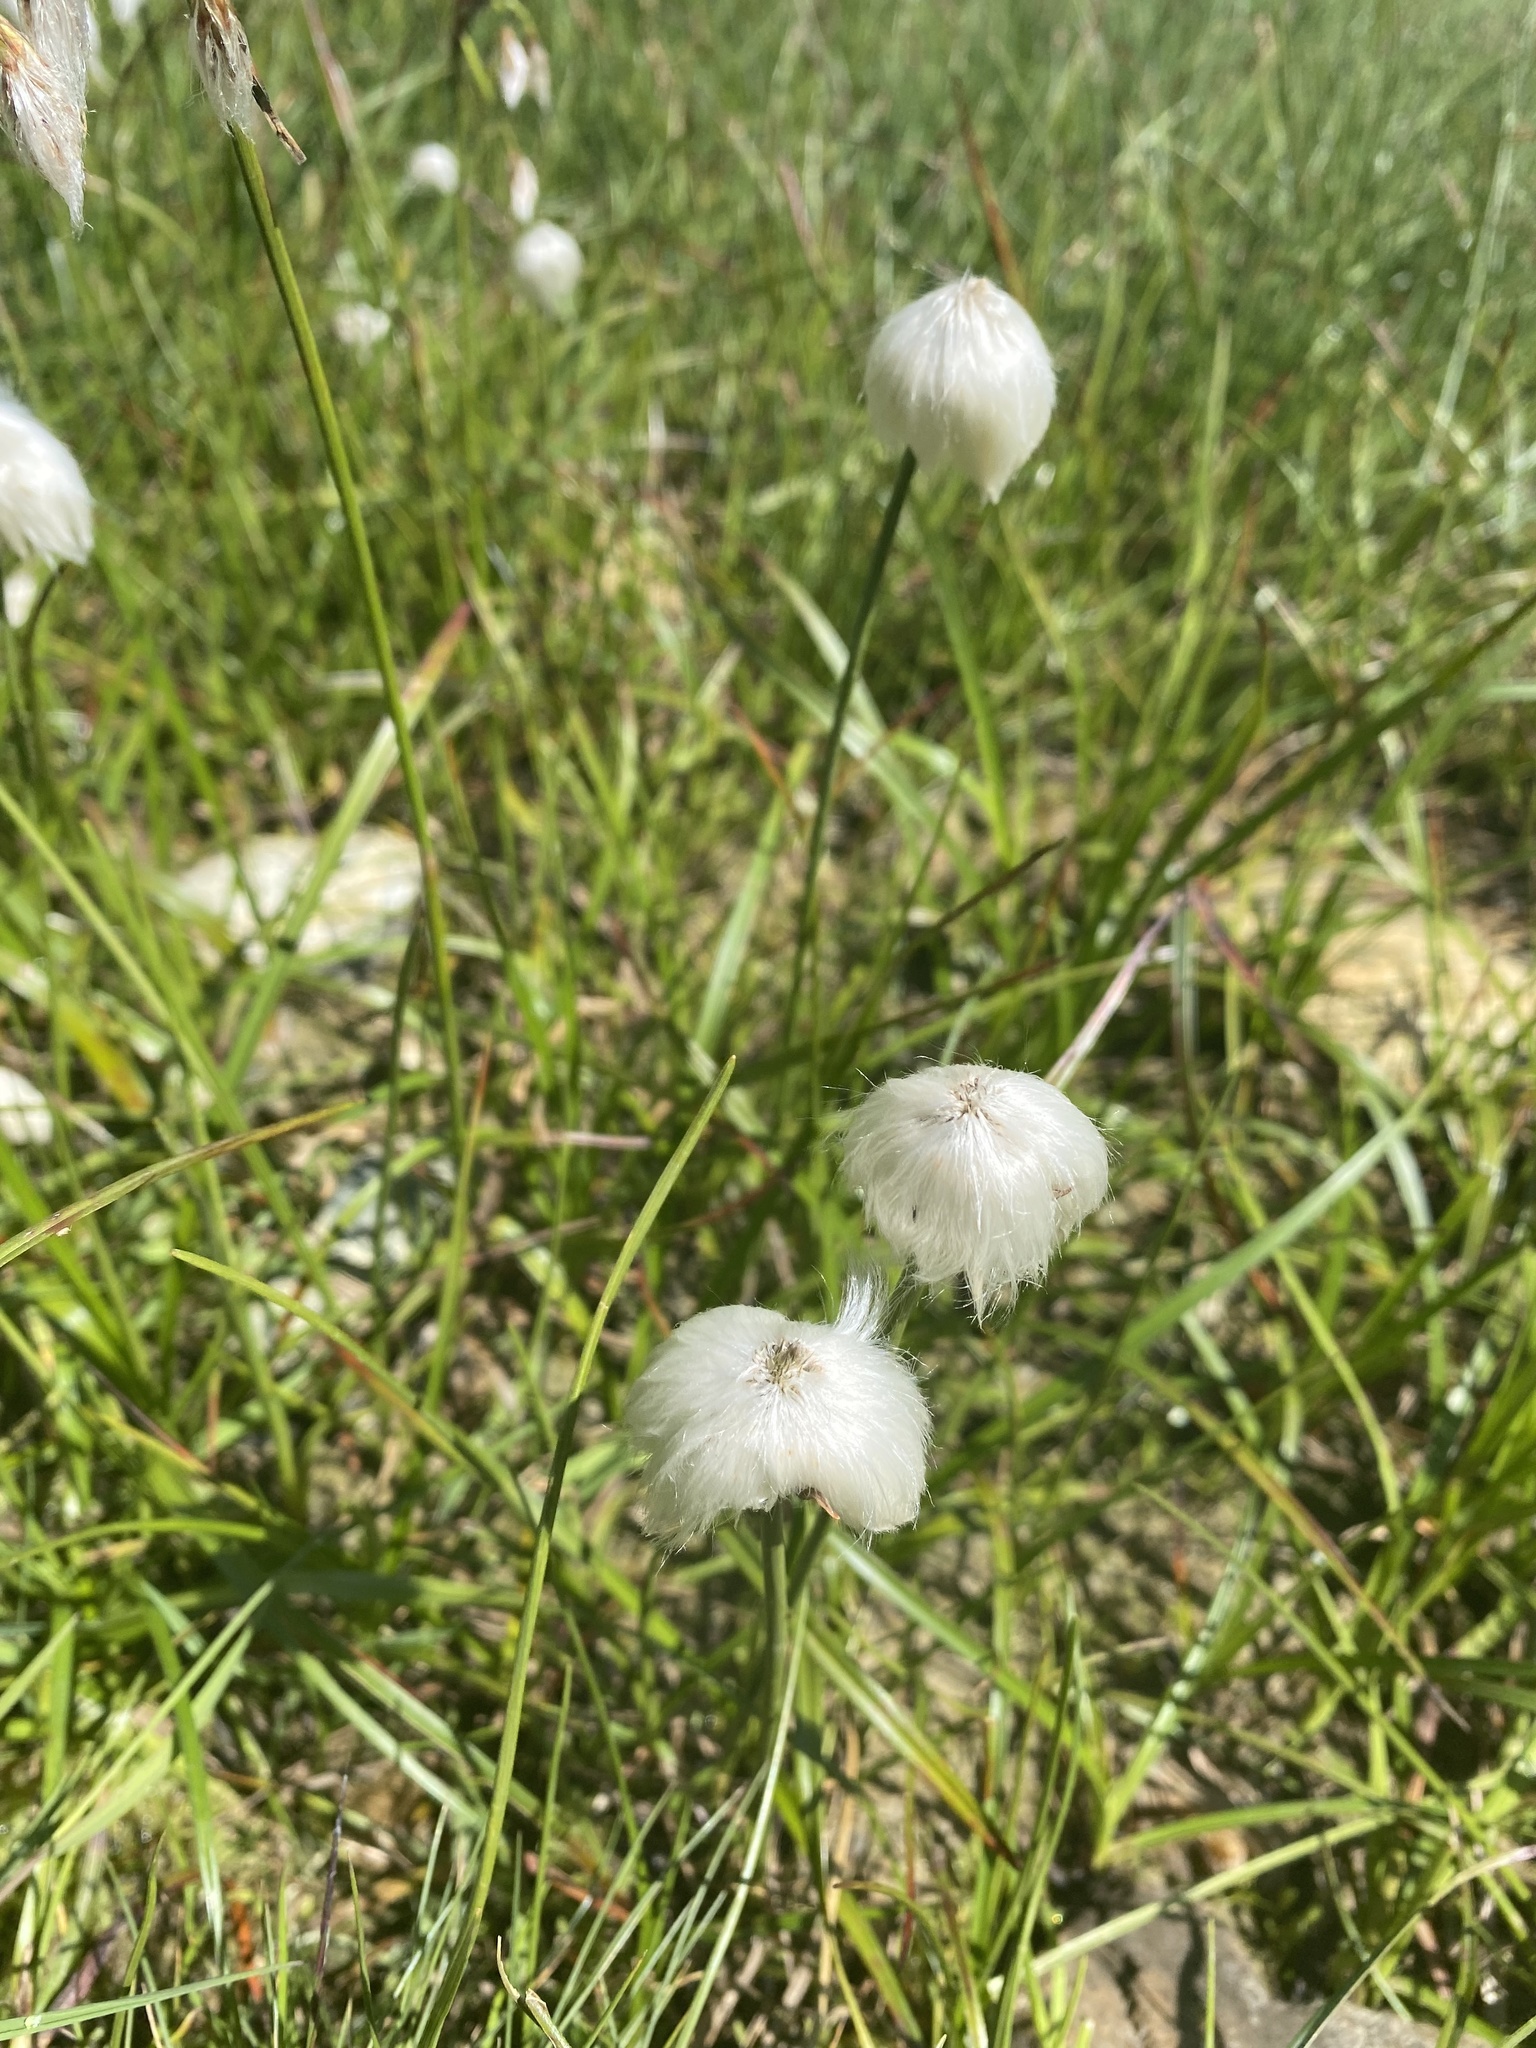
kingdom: Plantae
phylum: Tracheophyta
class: Liliopsida
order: Poales
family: Cyperaceae
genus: Eriophorum
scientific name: Eriophorum scheuchzeri
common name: Scheuchzer's cottongrass
